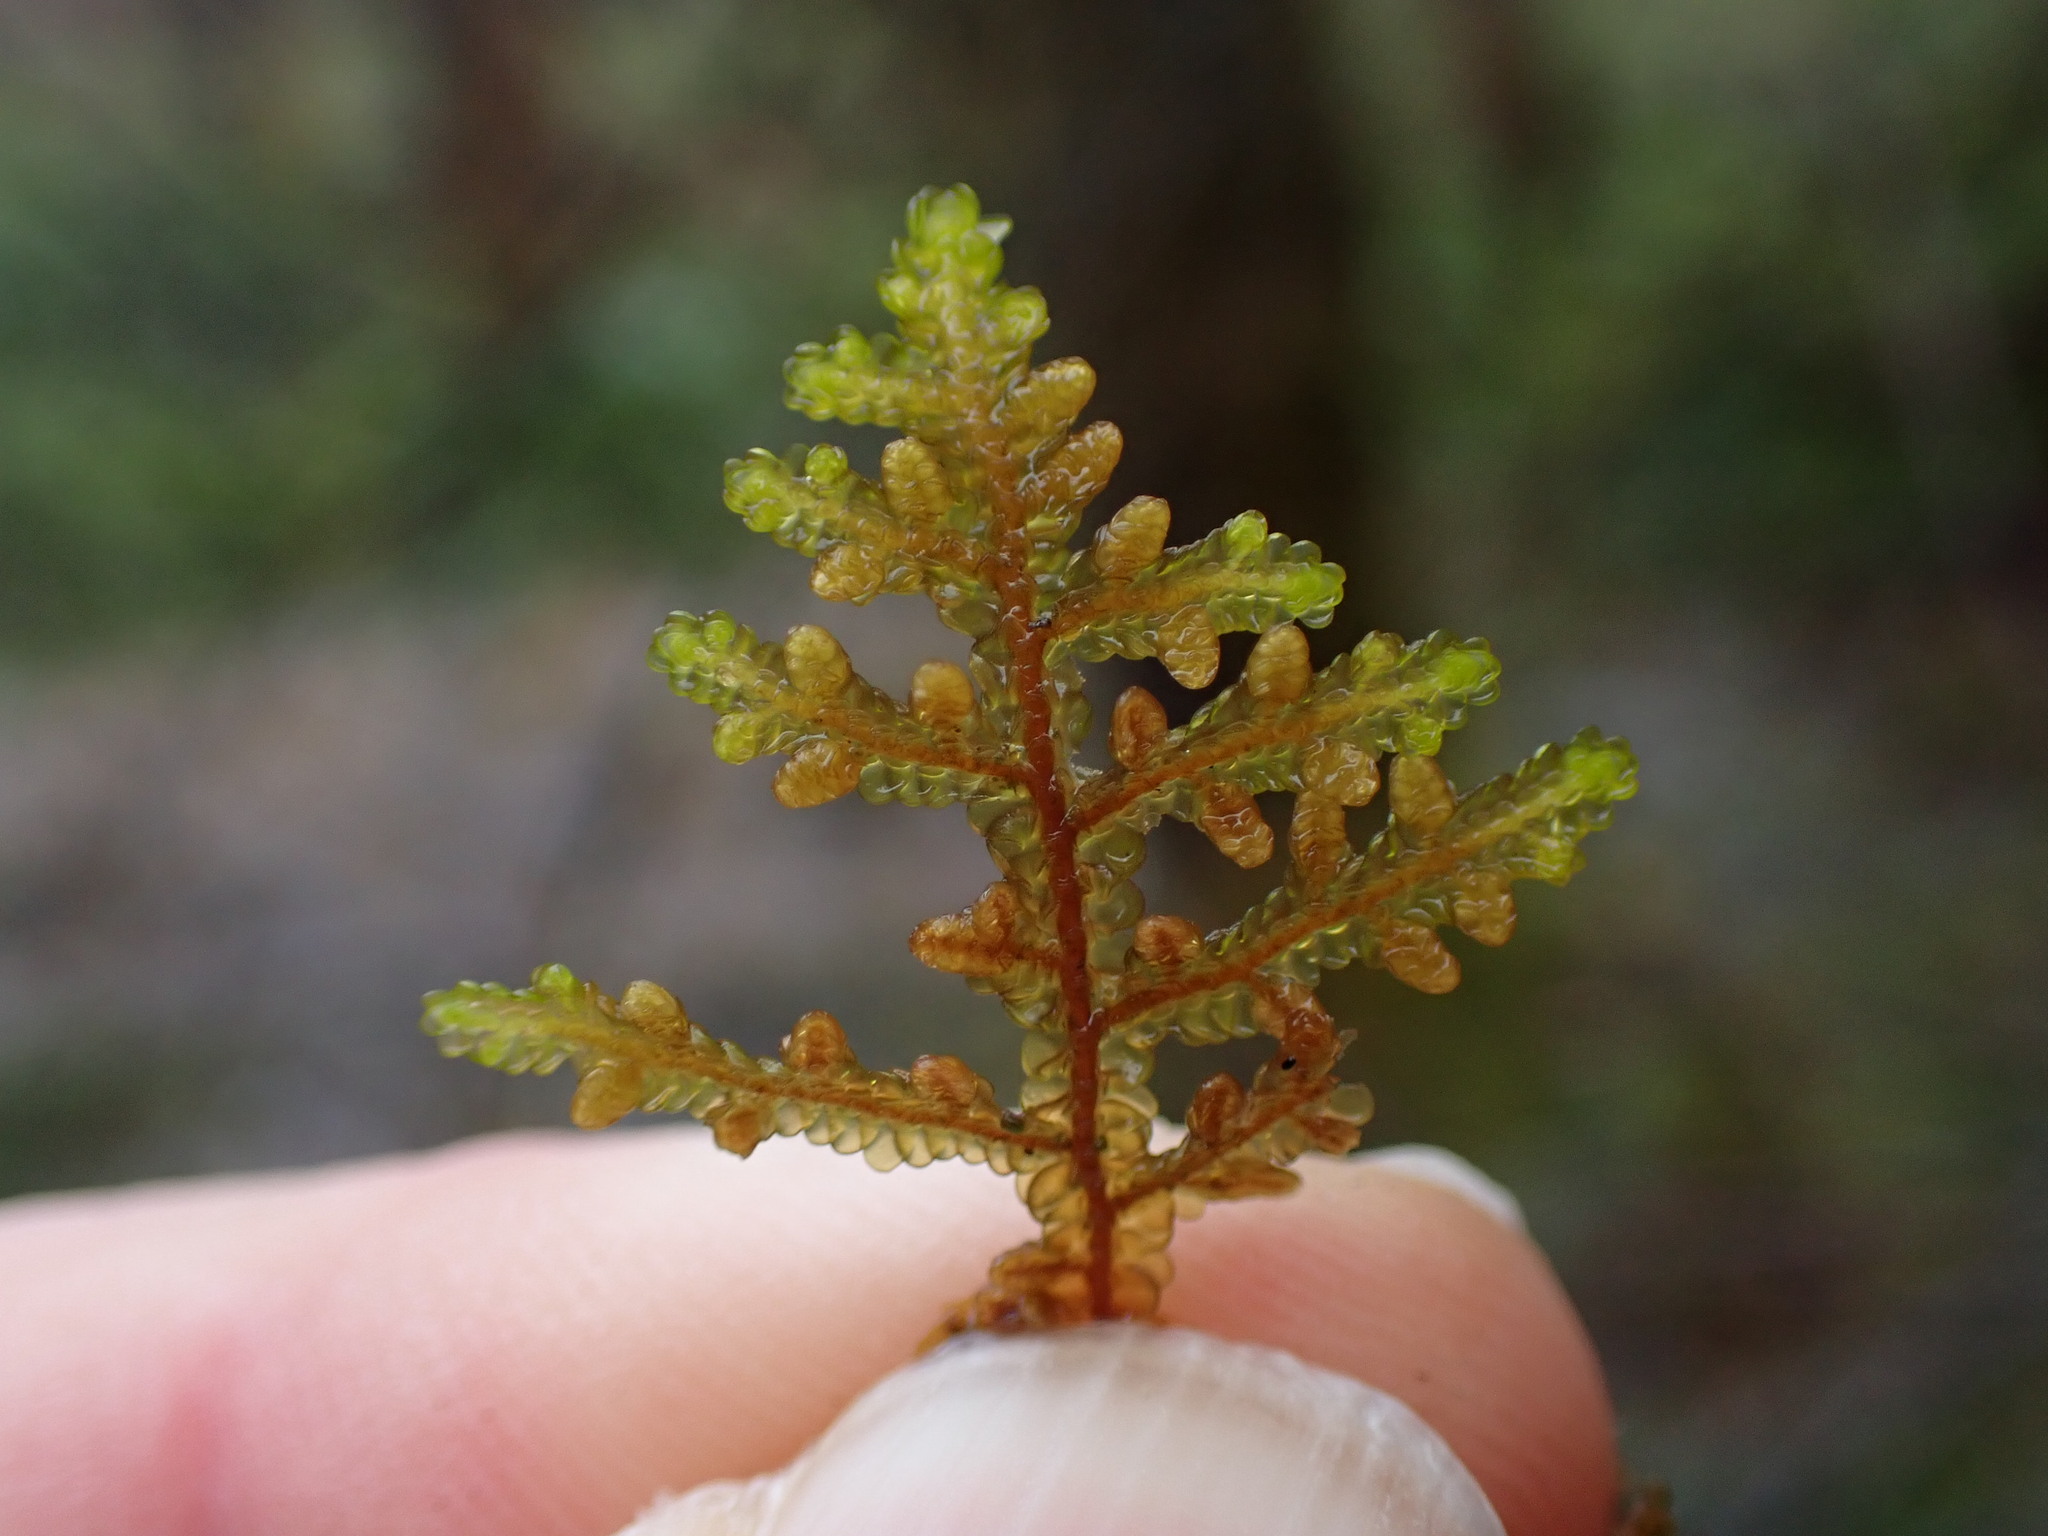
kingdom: Plantae
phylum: Marchantiophyta
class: Jungermanniopsida
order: Porellales
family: Porellaceae
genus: Porella
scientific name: Porella navicularis
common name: Tree ruffle liverwort
